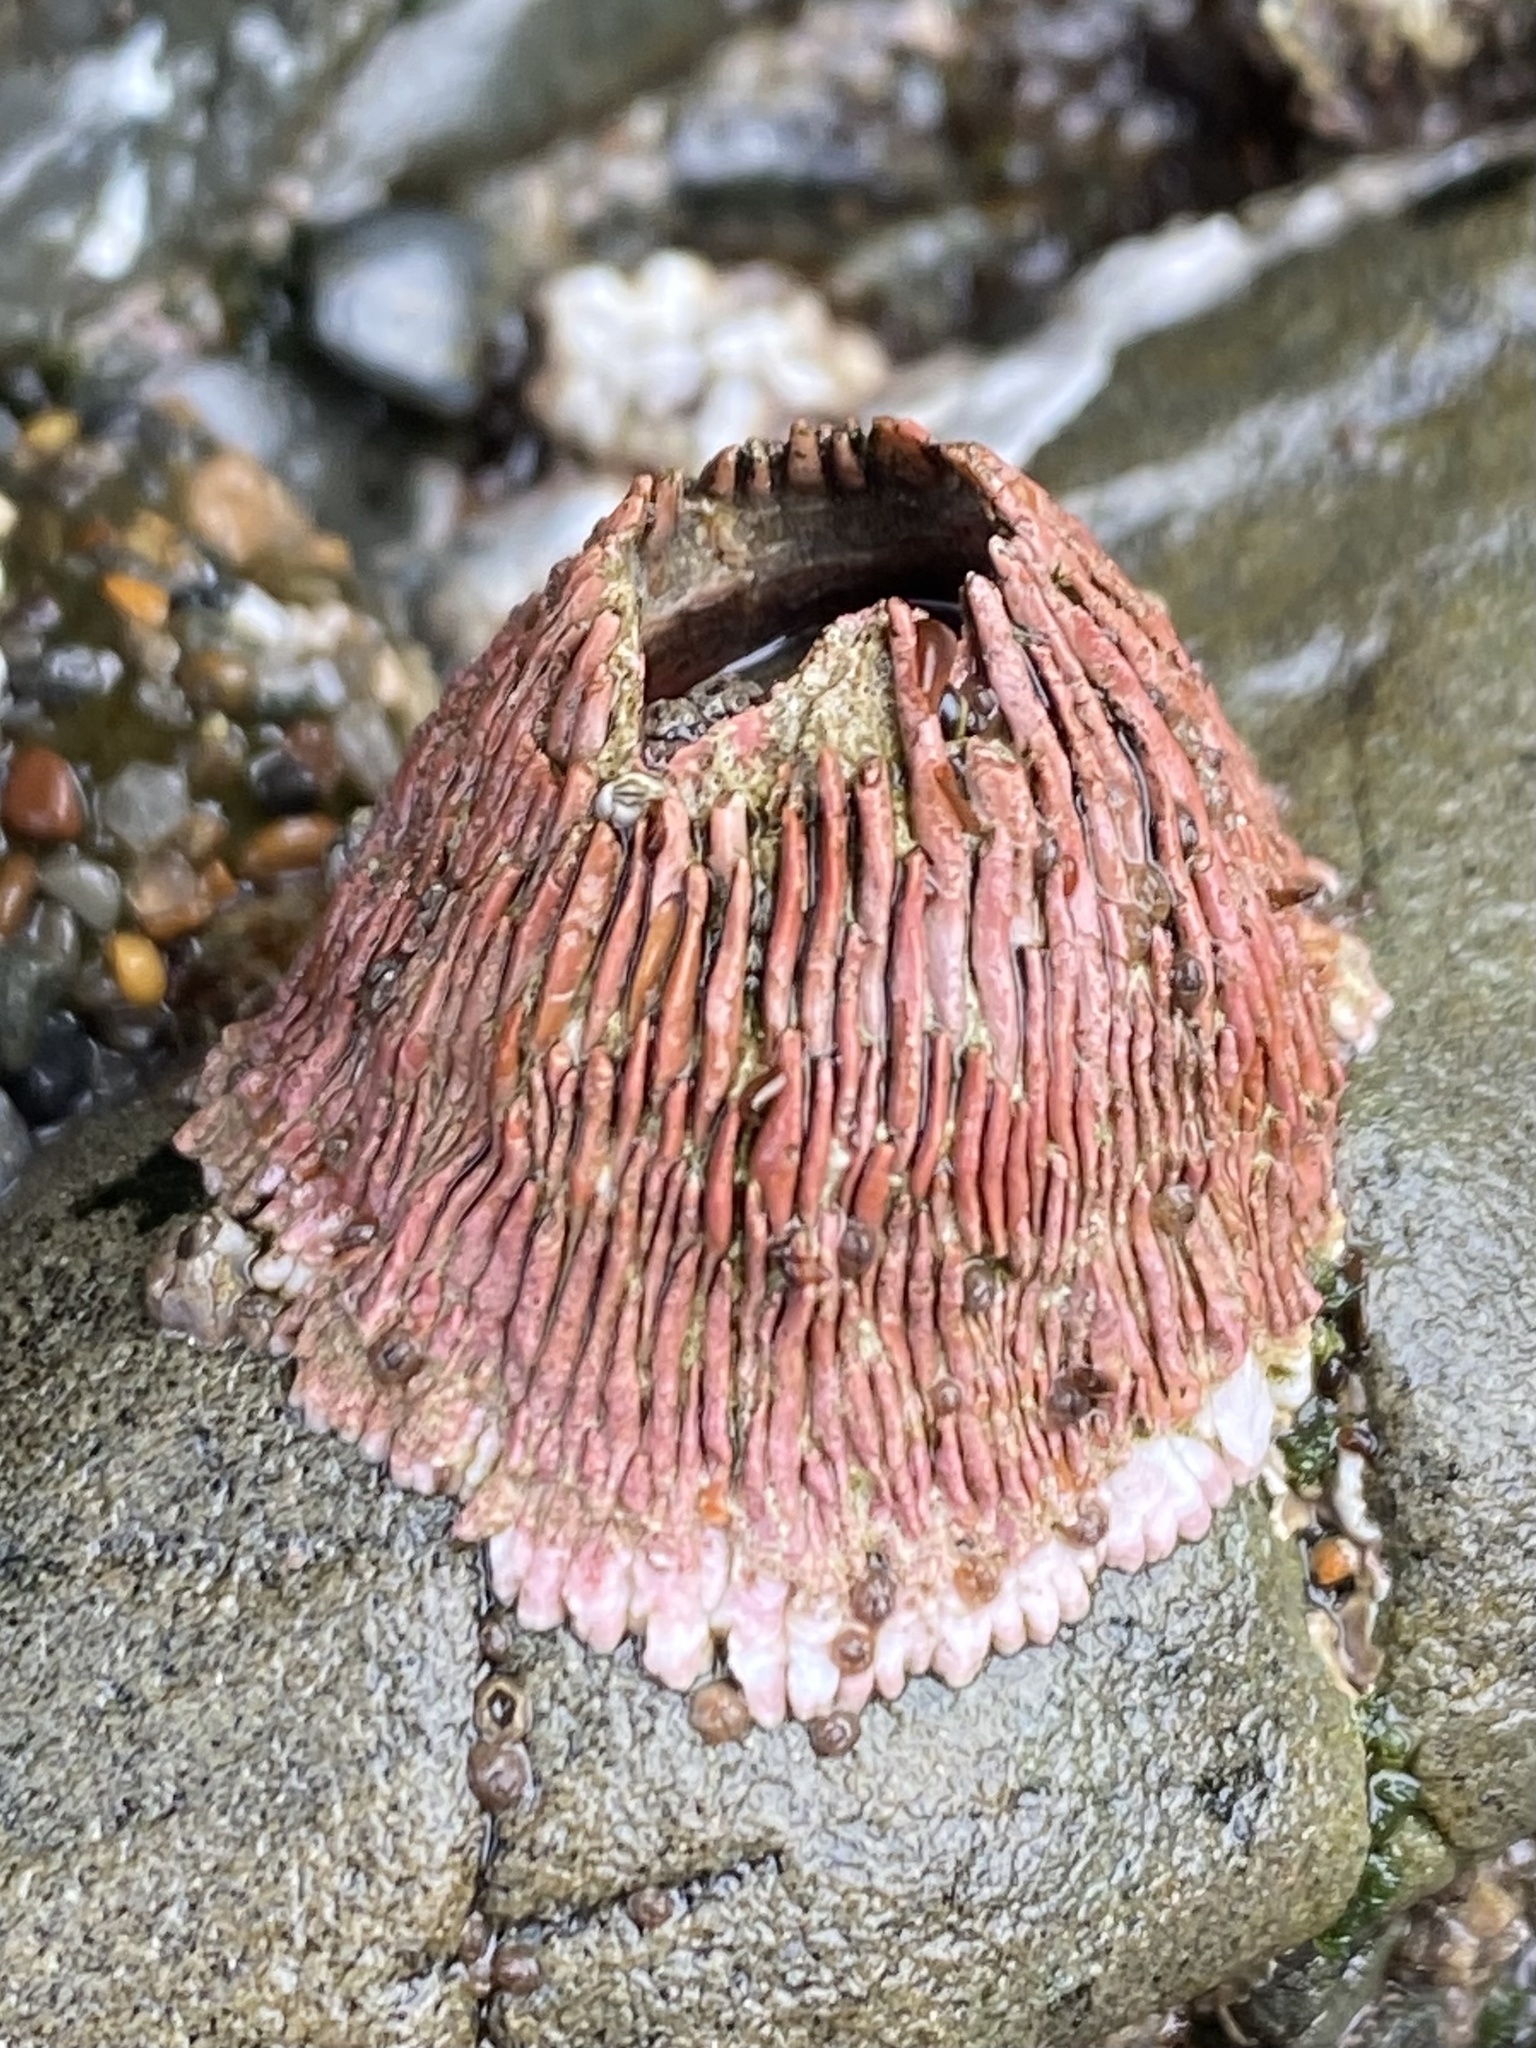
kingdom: Animalia
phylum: Arthropoda
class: Maxillopoda
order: Sessilia
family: Tetraclitidae
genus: Tetraclita
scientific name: Tetraclita rubescens
